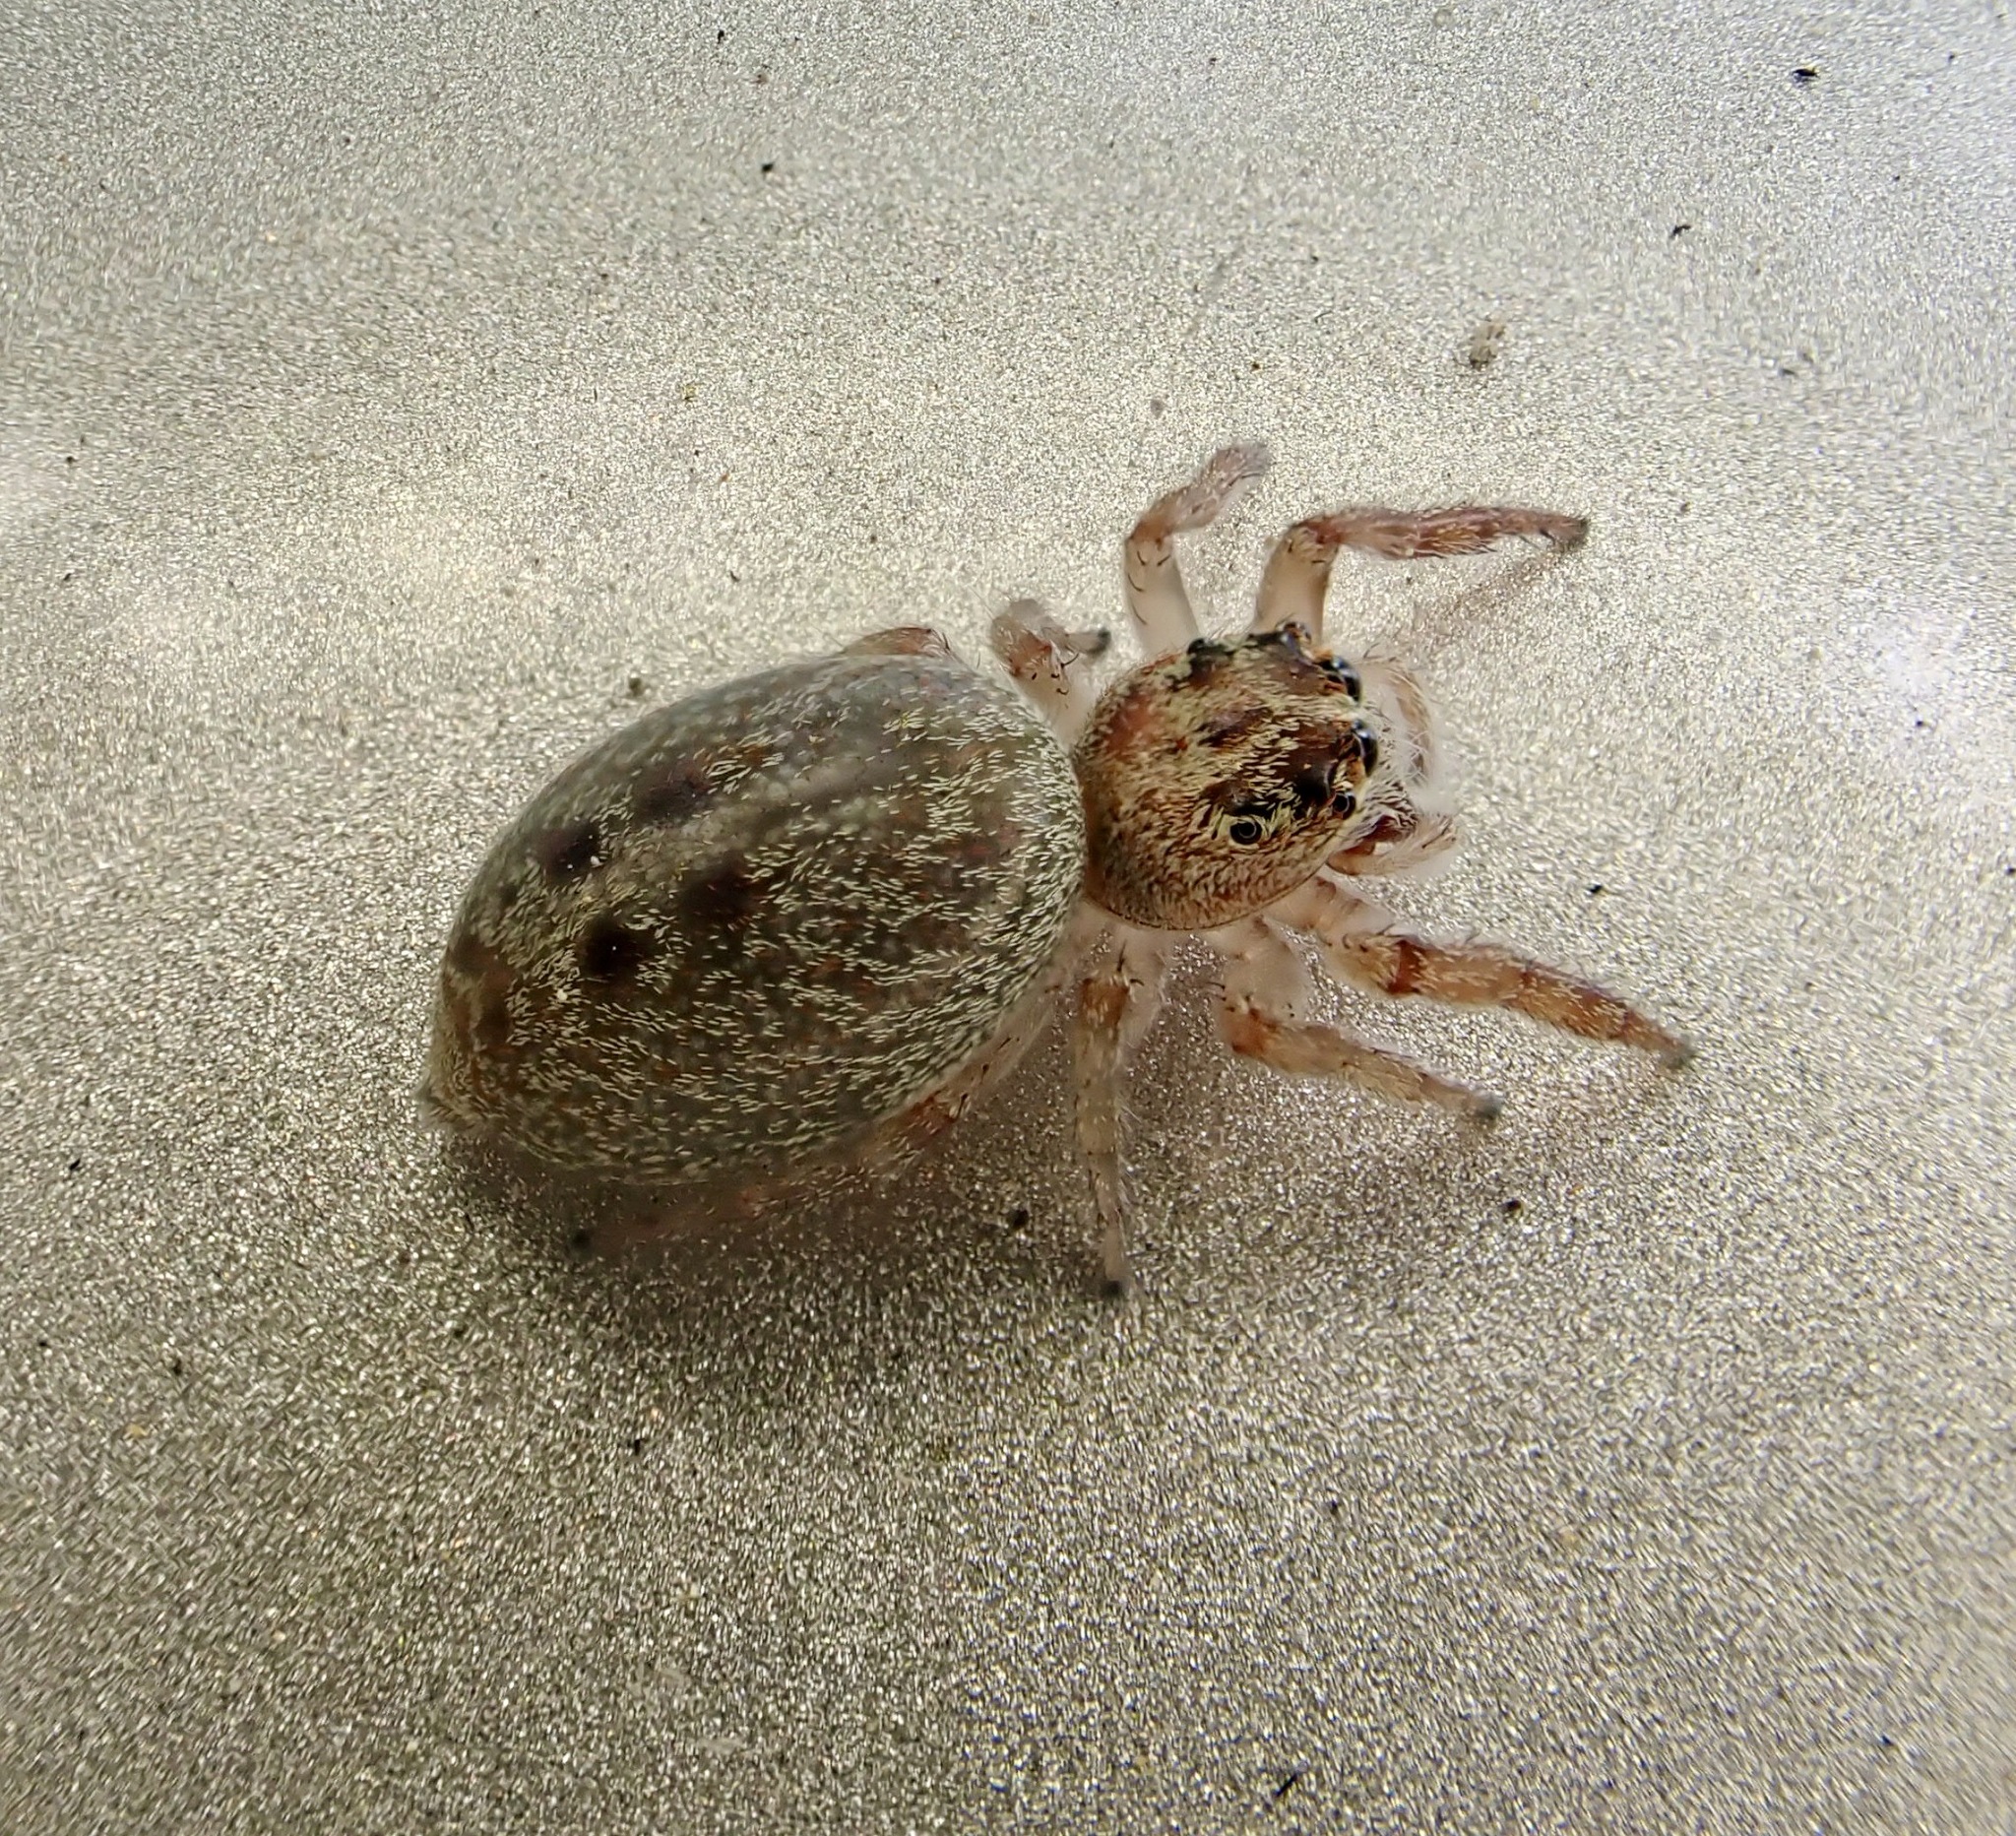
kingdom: Animalia
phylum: Arthropoda
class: Arachnida
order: Araneae
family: Salticidae
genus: Opisthoncus
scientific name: Opisthoncus polyphemus
